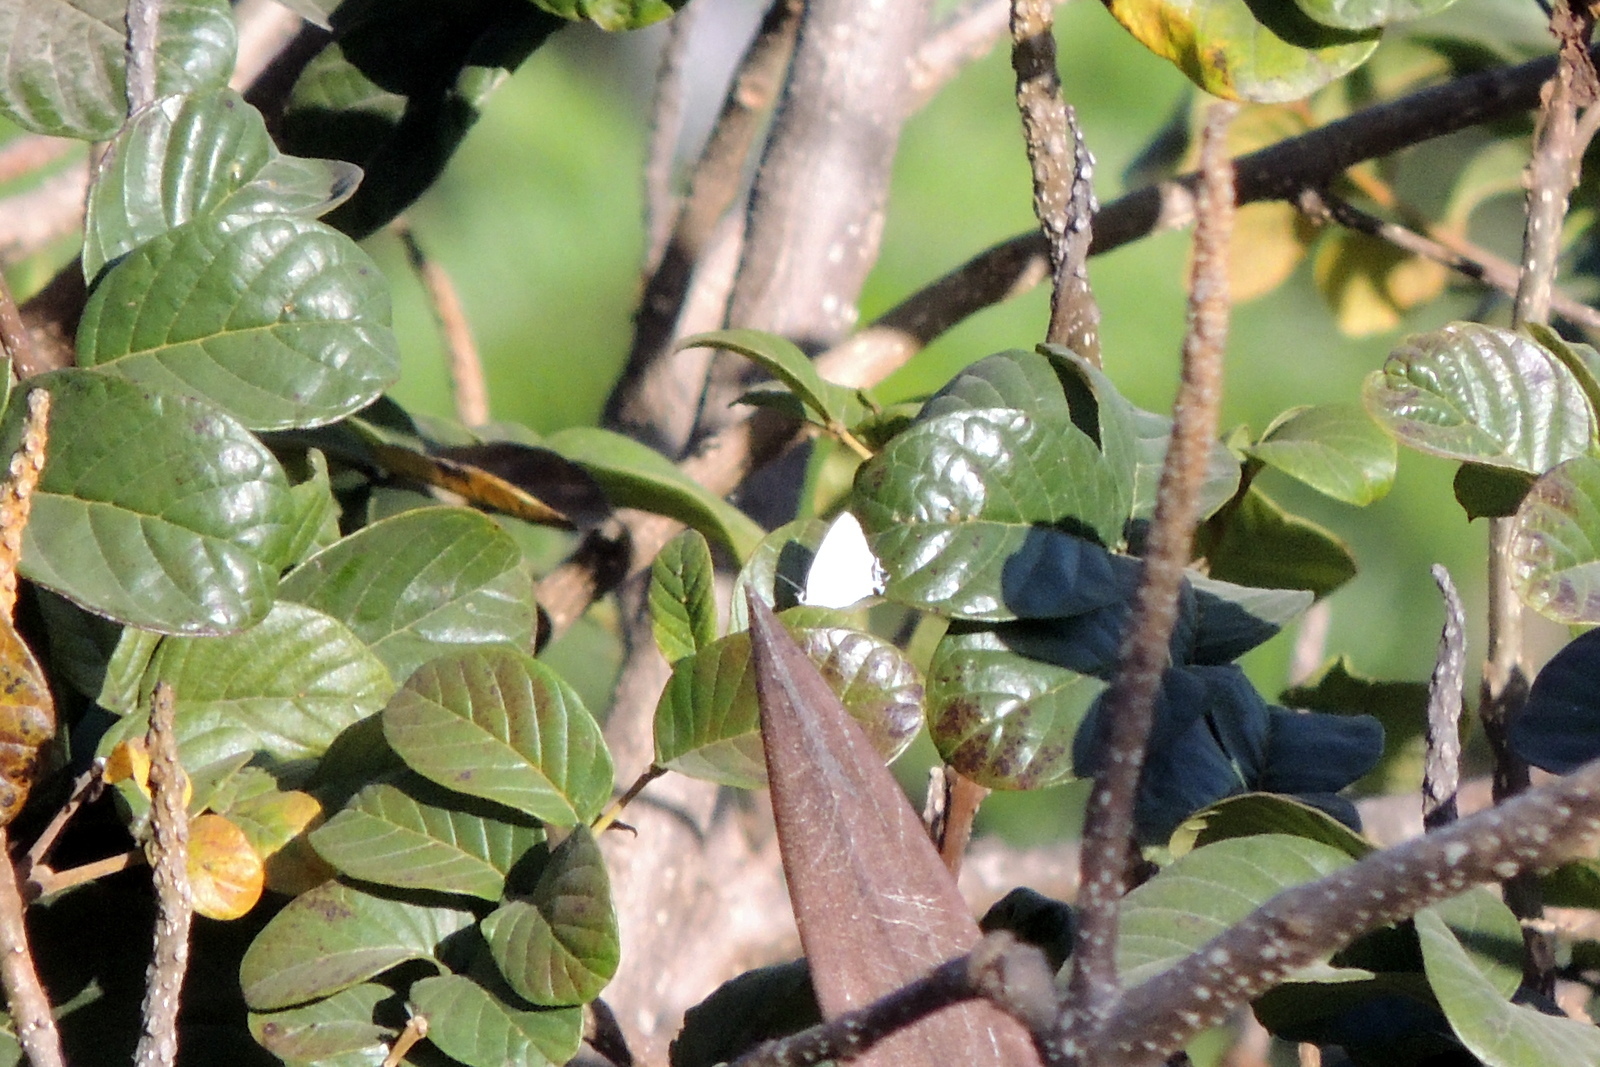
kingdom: Animalia
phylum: Arthropoda
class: Insecta
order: Lepidoptera
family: Lycaenidae
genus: Tajuria
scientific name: Tajuria cippus
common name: Peacock royal
